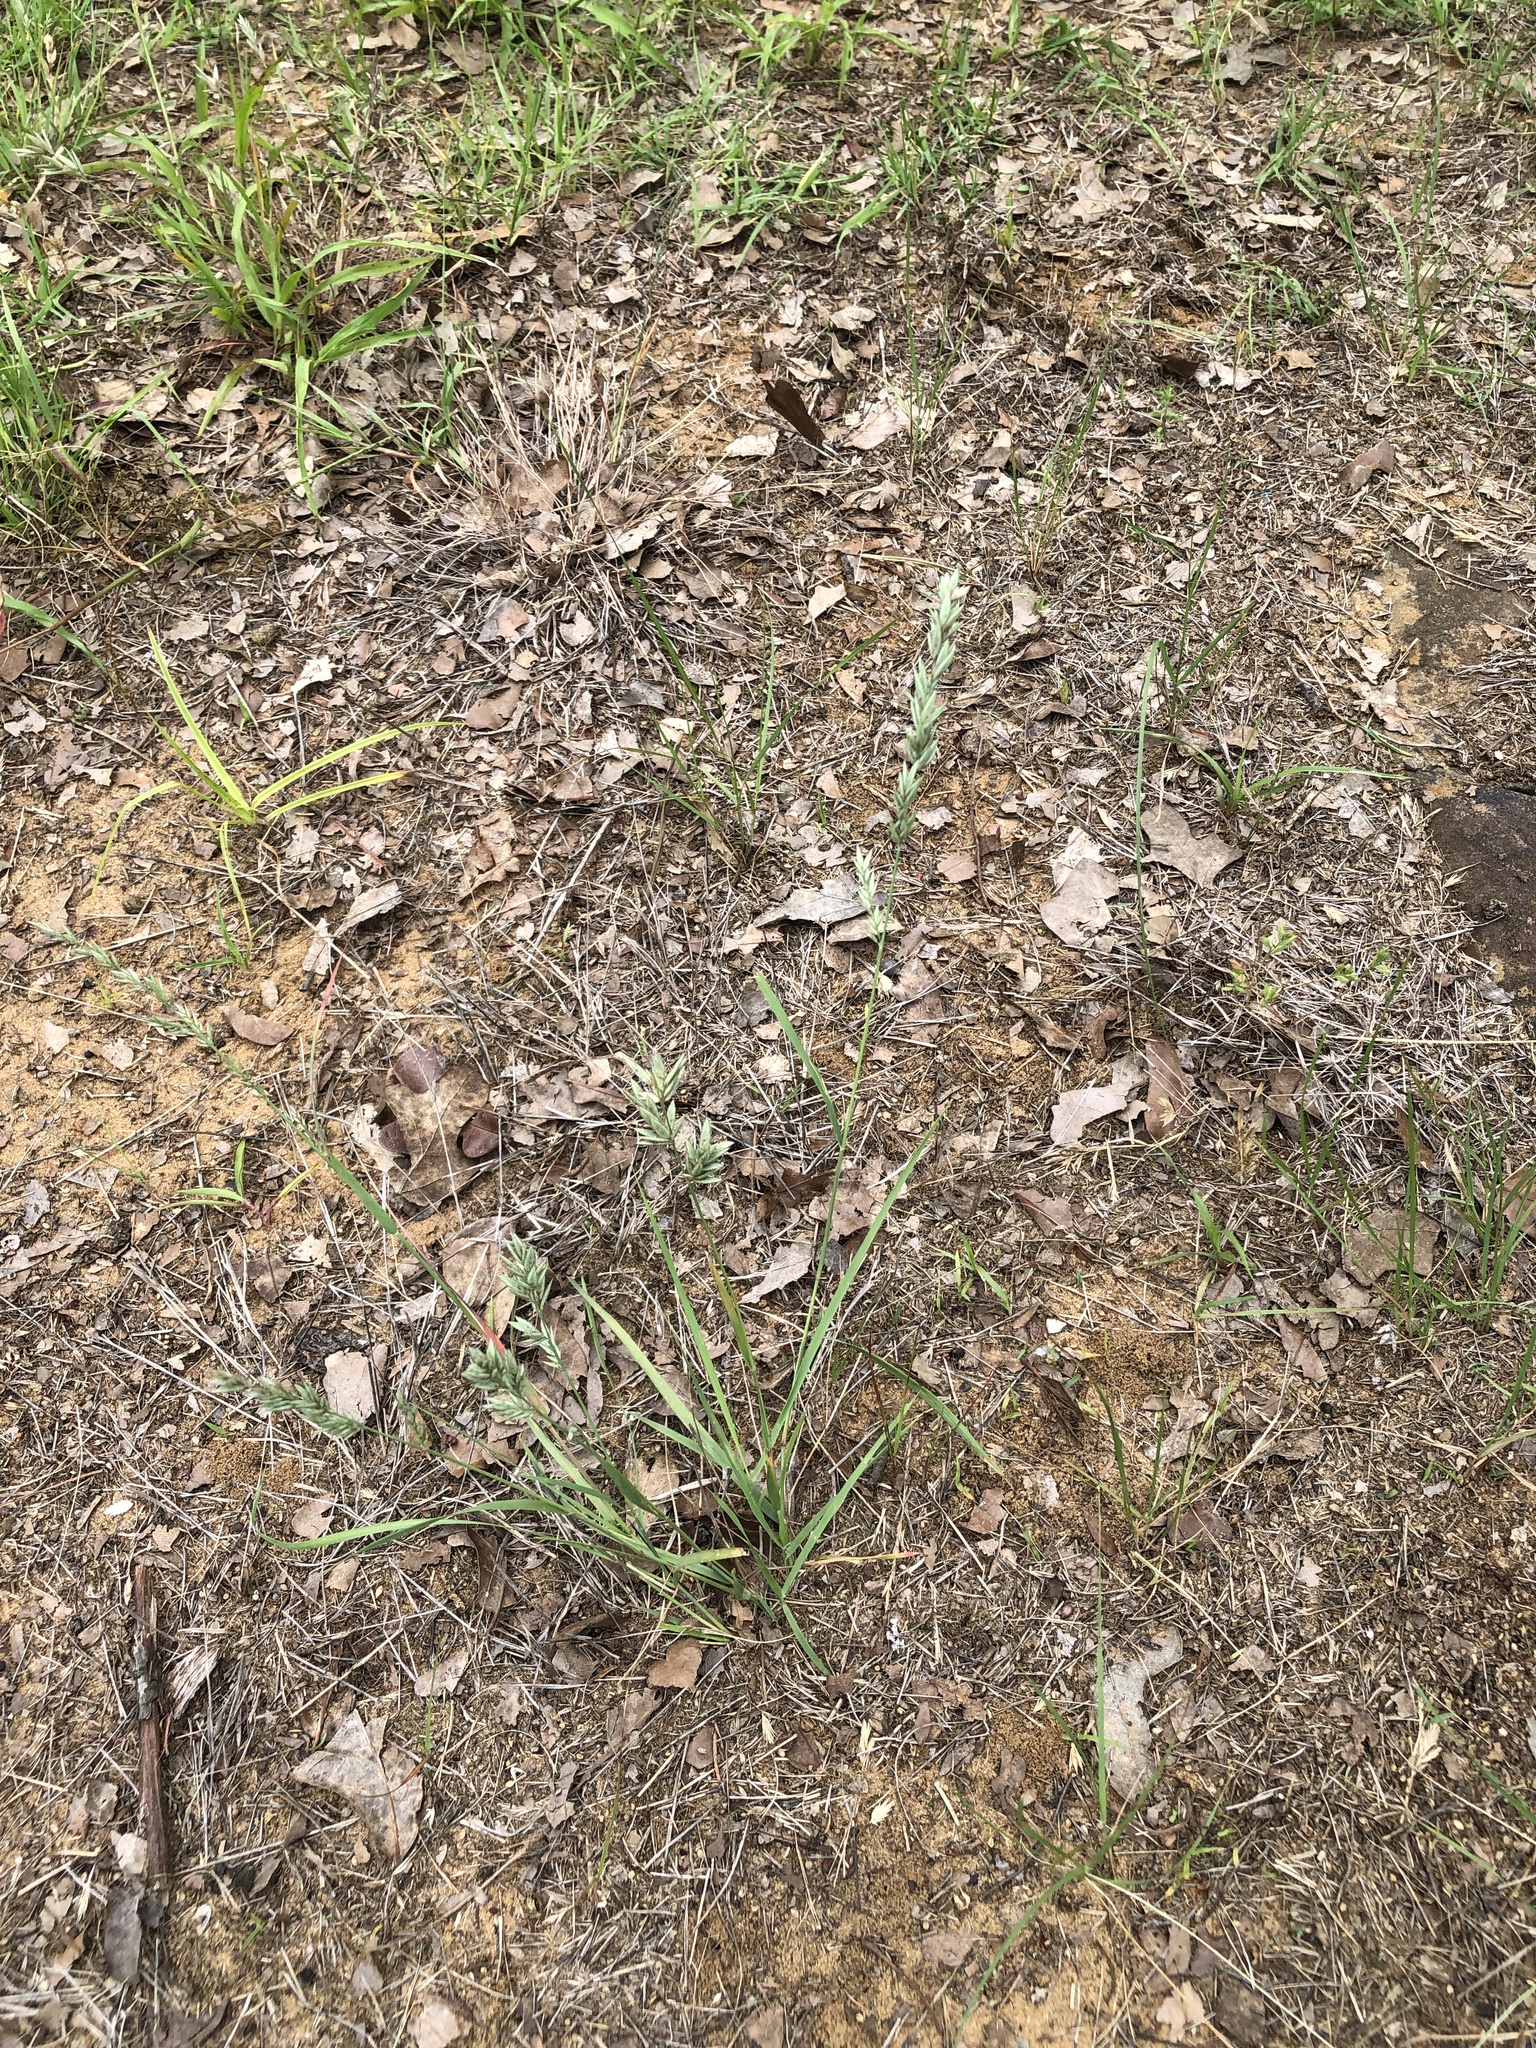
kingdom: Plantae
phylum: Tracheophyta
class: Liliopsida
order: Poales
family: Poaceae
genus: Eragrostis
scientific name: Eragrostis secundiflora
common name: Red love grass
